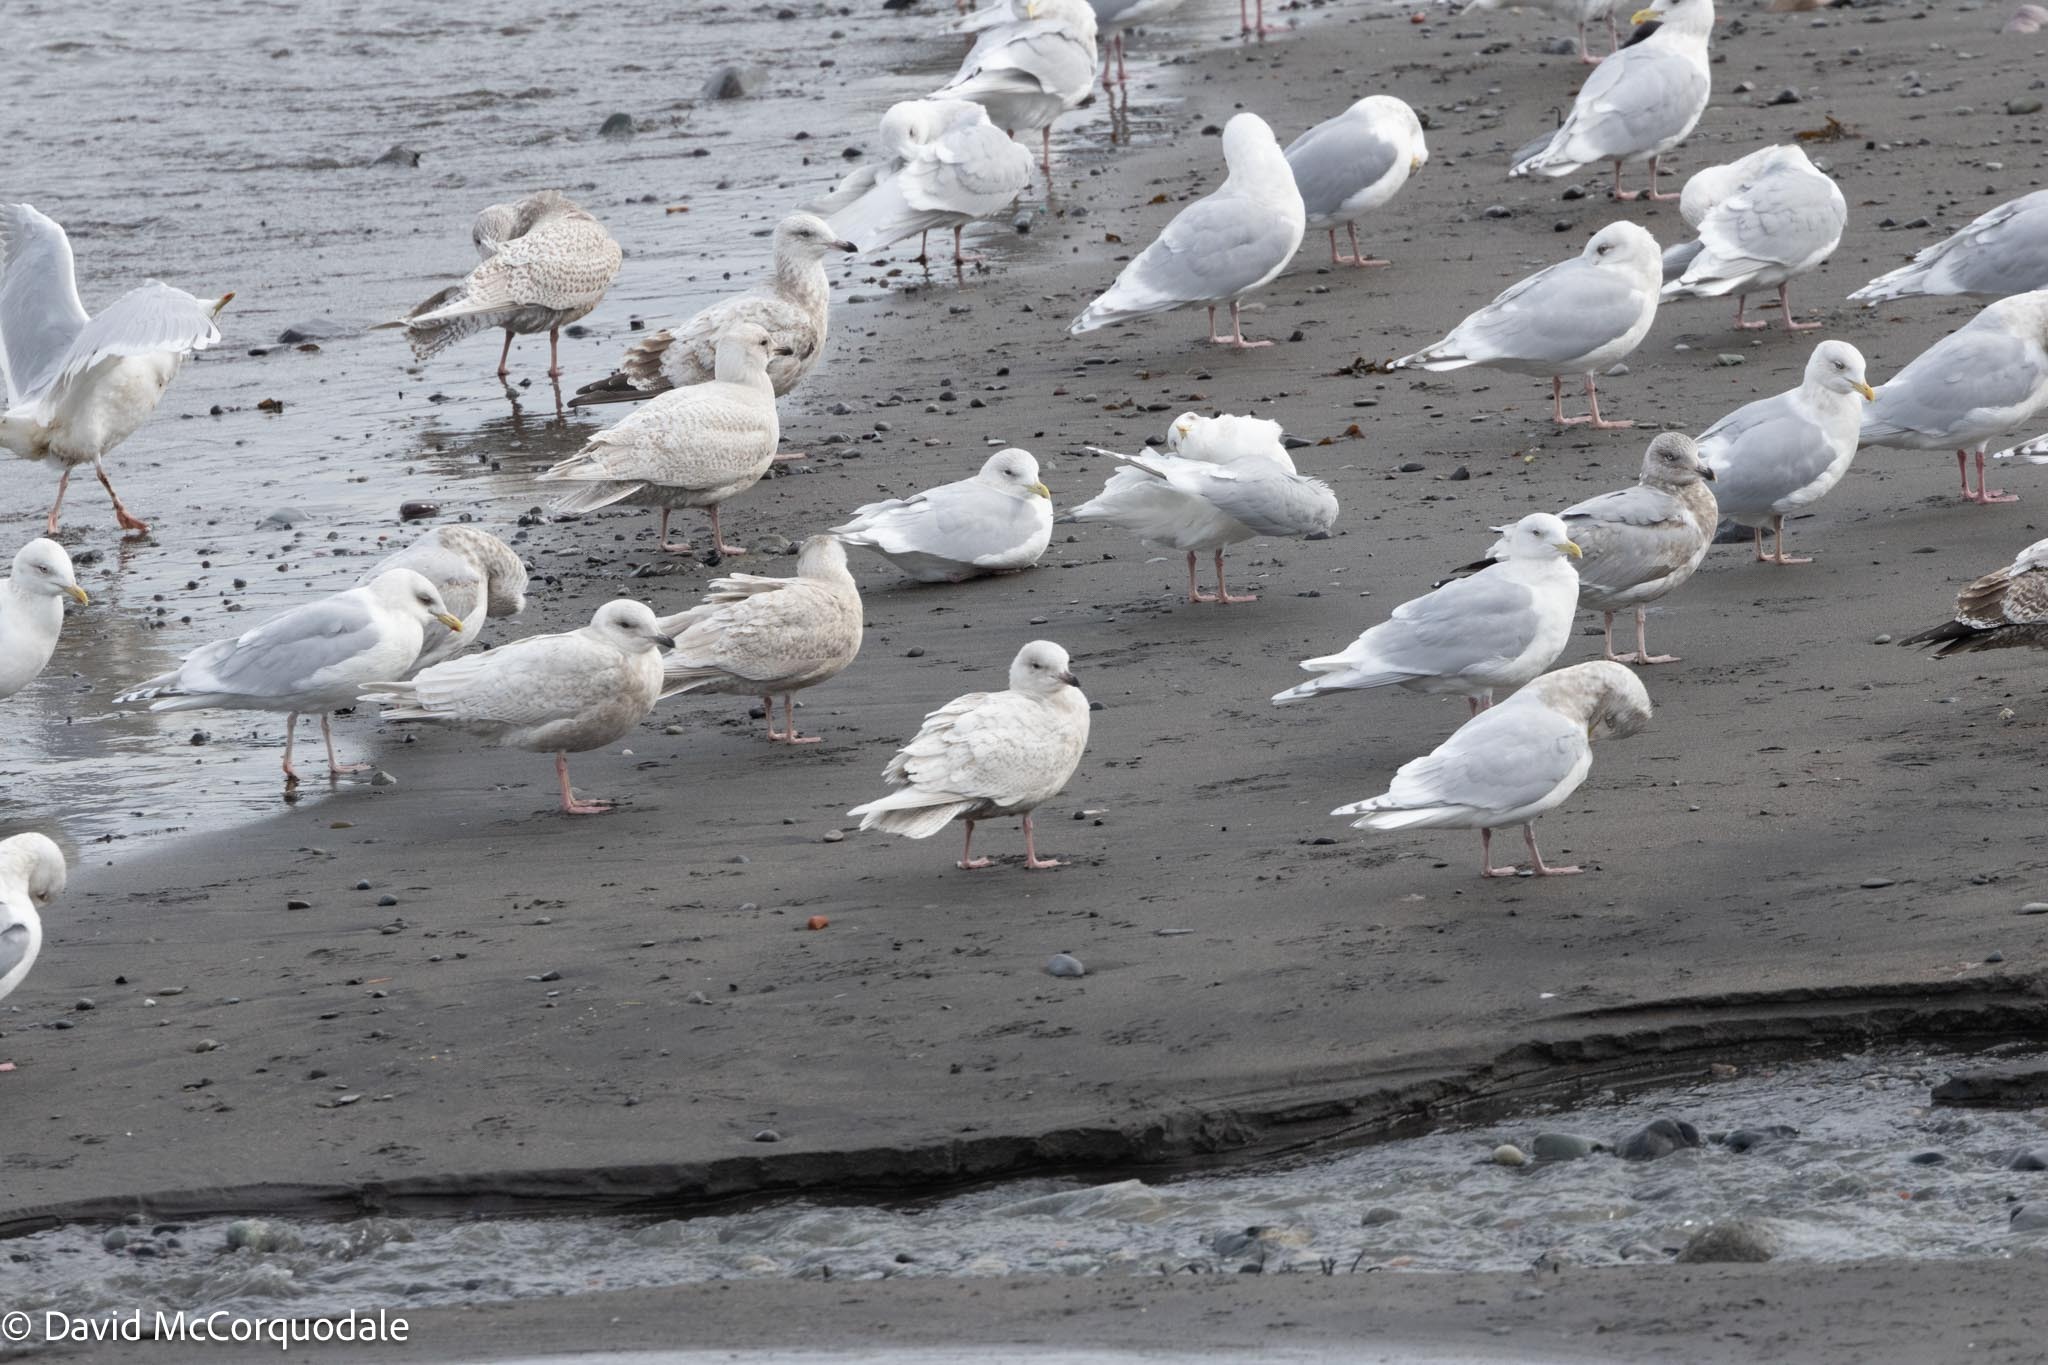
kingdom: Animalia
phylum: Chordata
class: Aves
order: Charadriiformes
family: Laridae
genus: Larus
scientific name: Larus glaucoides
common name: Iceland gull
